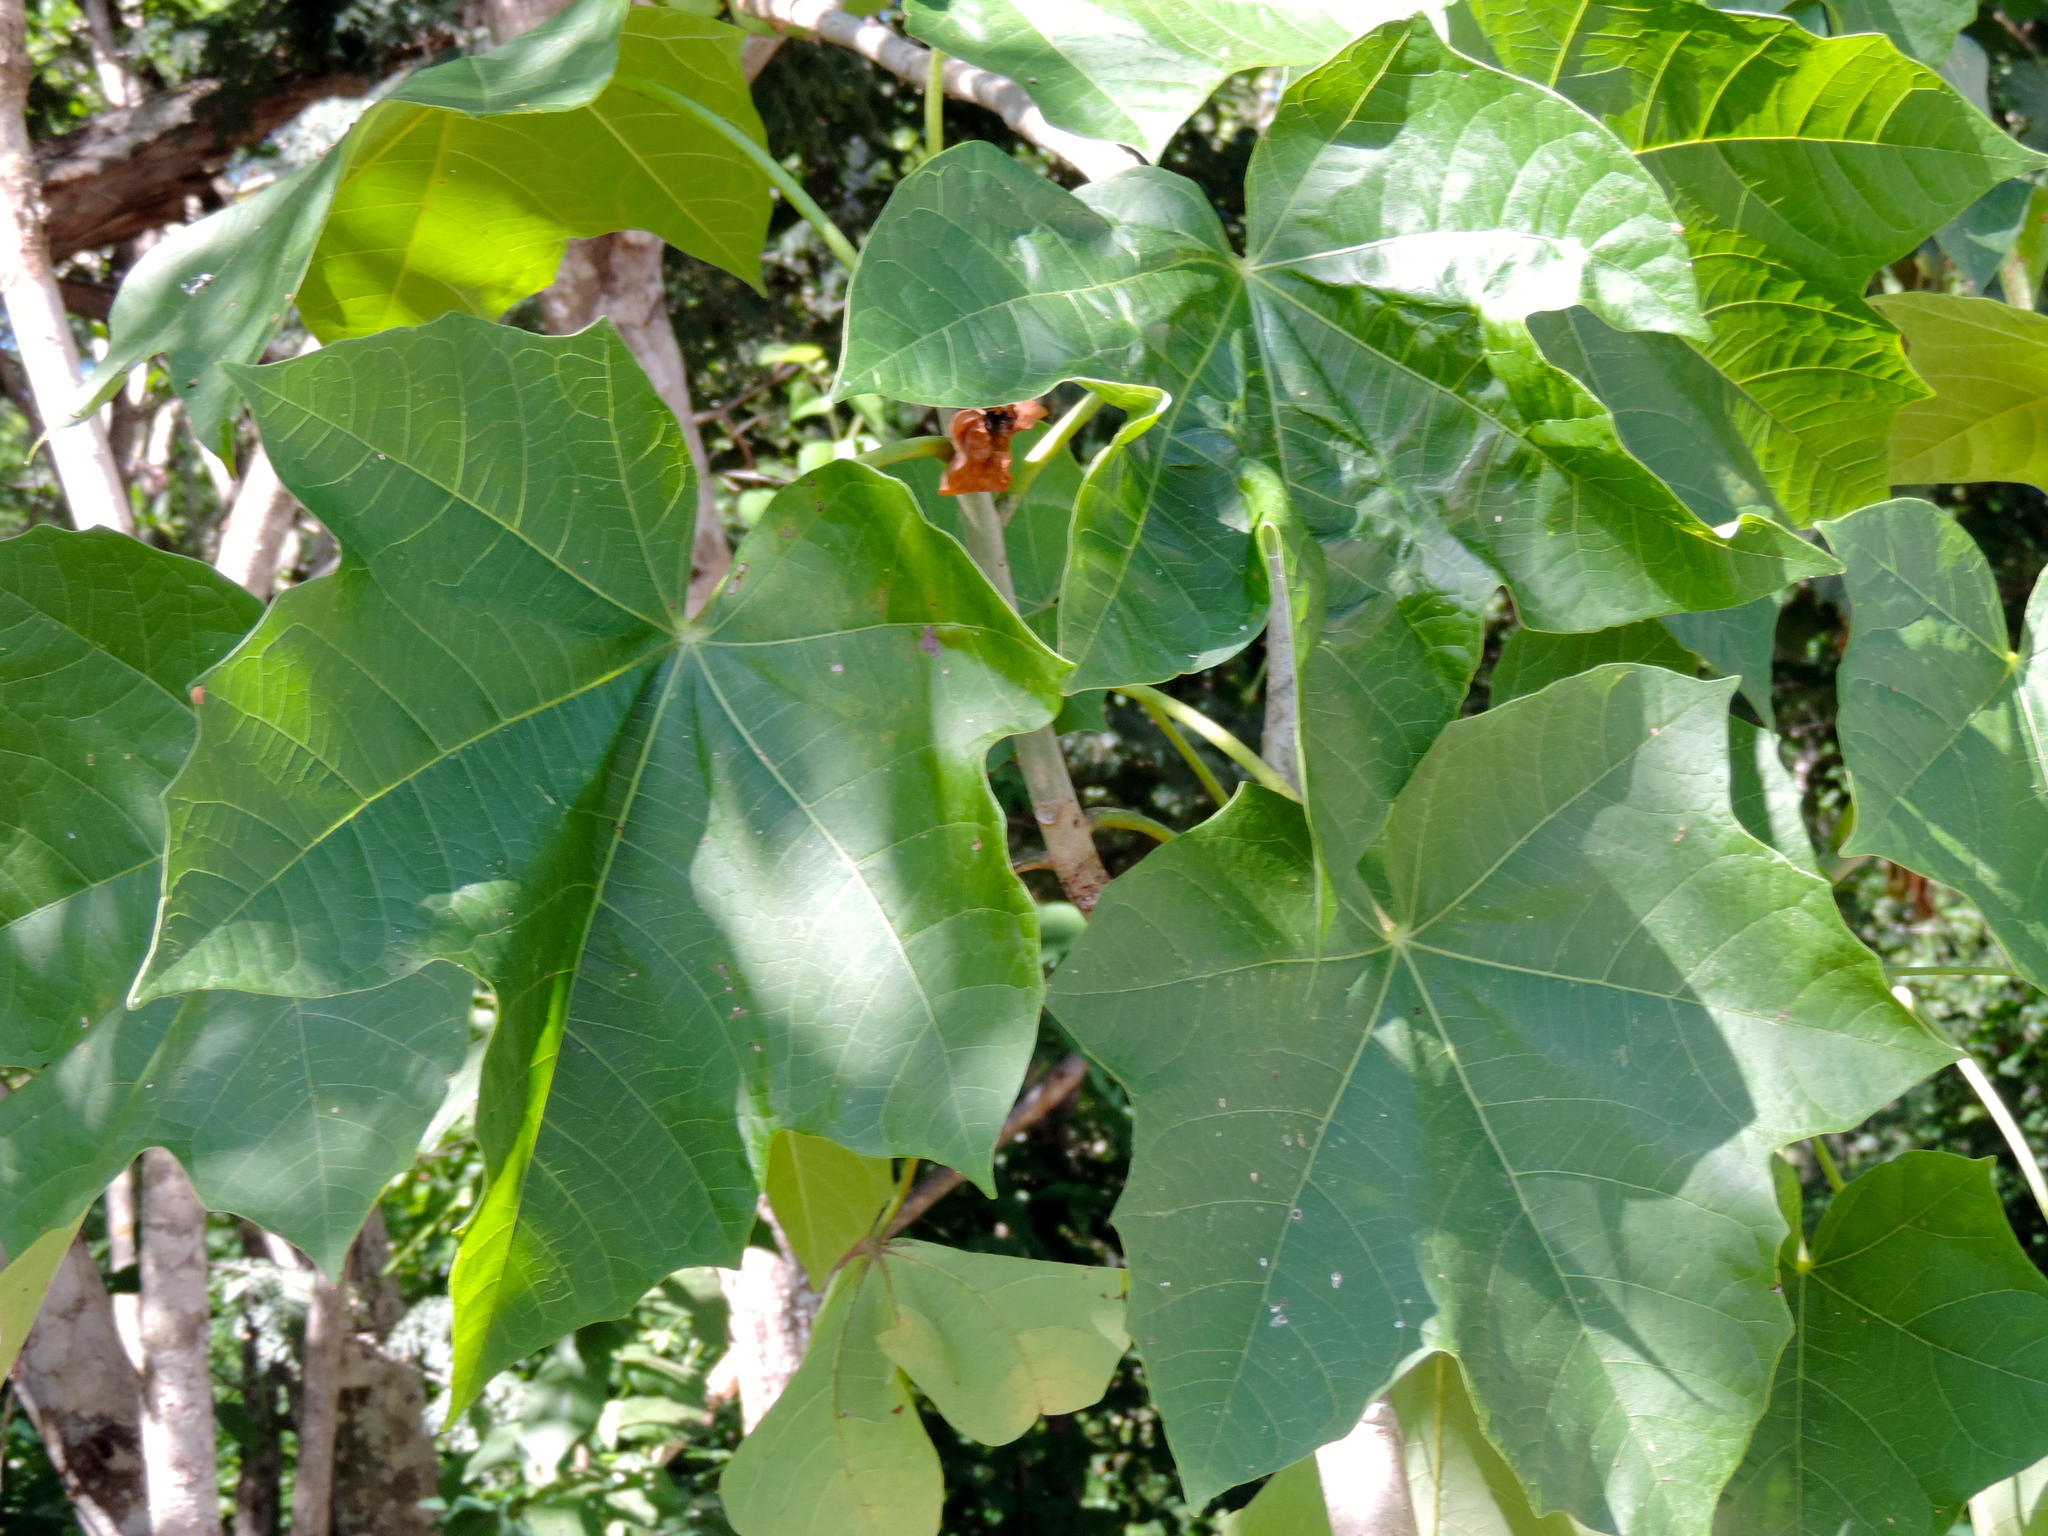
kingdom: Plantae
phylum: Tracheophyta
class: Magnoliopsida
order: Malpighiales
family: Euphorbiaceae
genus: Jatropha
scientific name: Jatropha curcas
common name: Barbados nut
